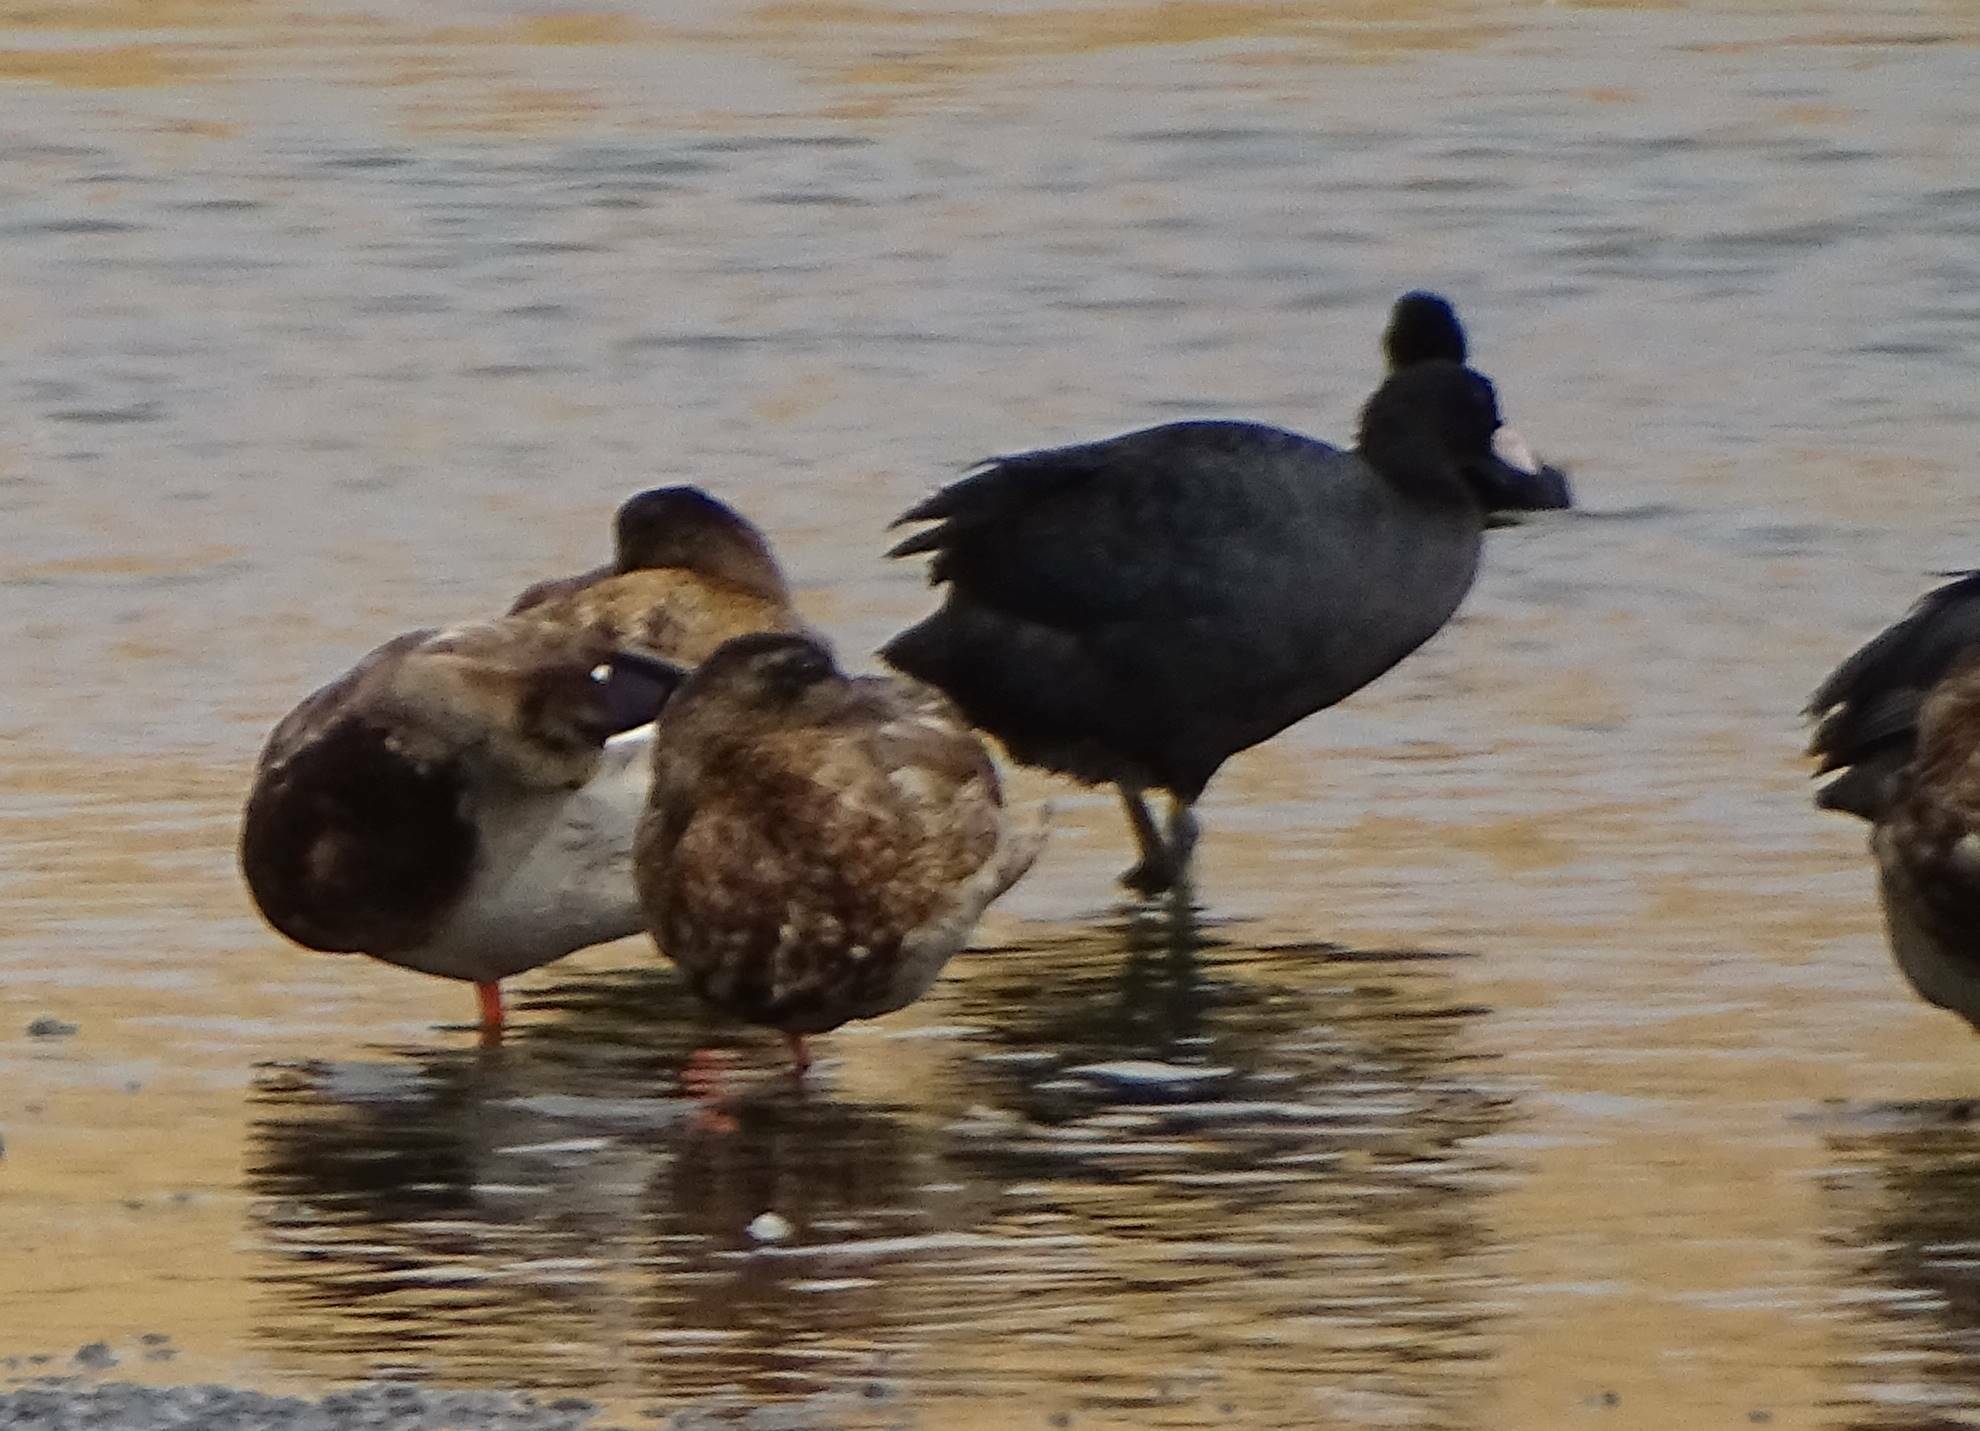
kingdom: Animalia
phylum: Chordata
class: Aves
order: Gruiformes
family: Rallidae
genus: Fulica
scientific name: Fulica atra
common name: Eurasian coot
